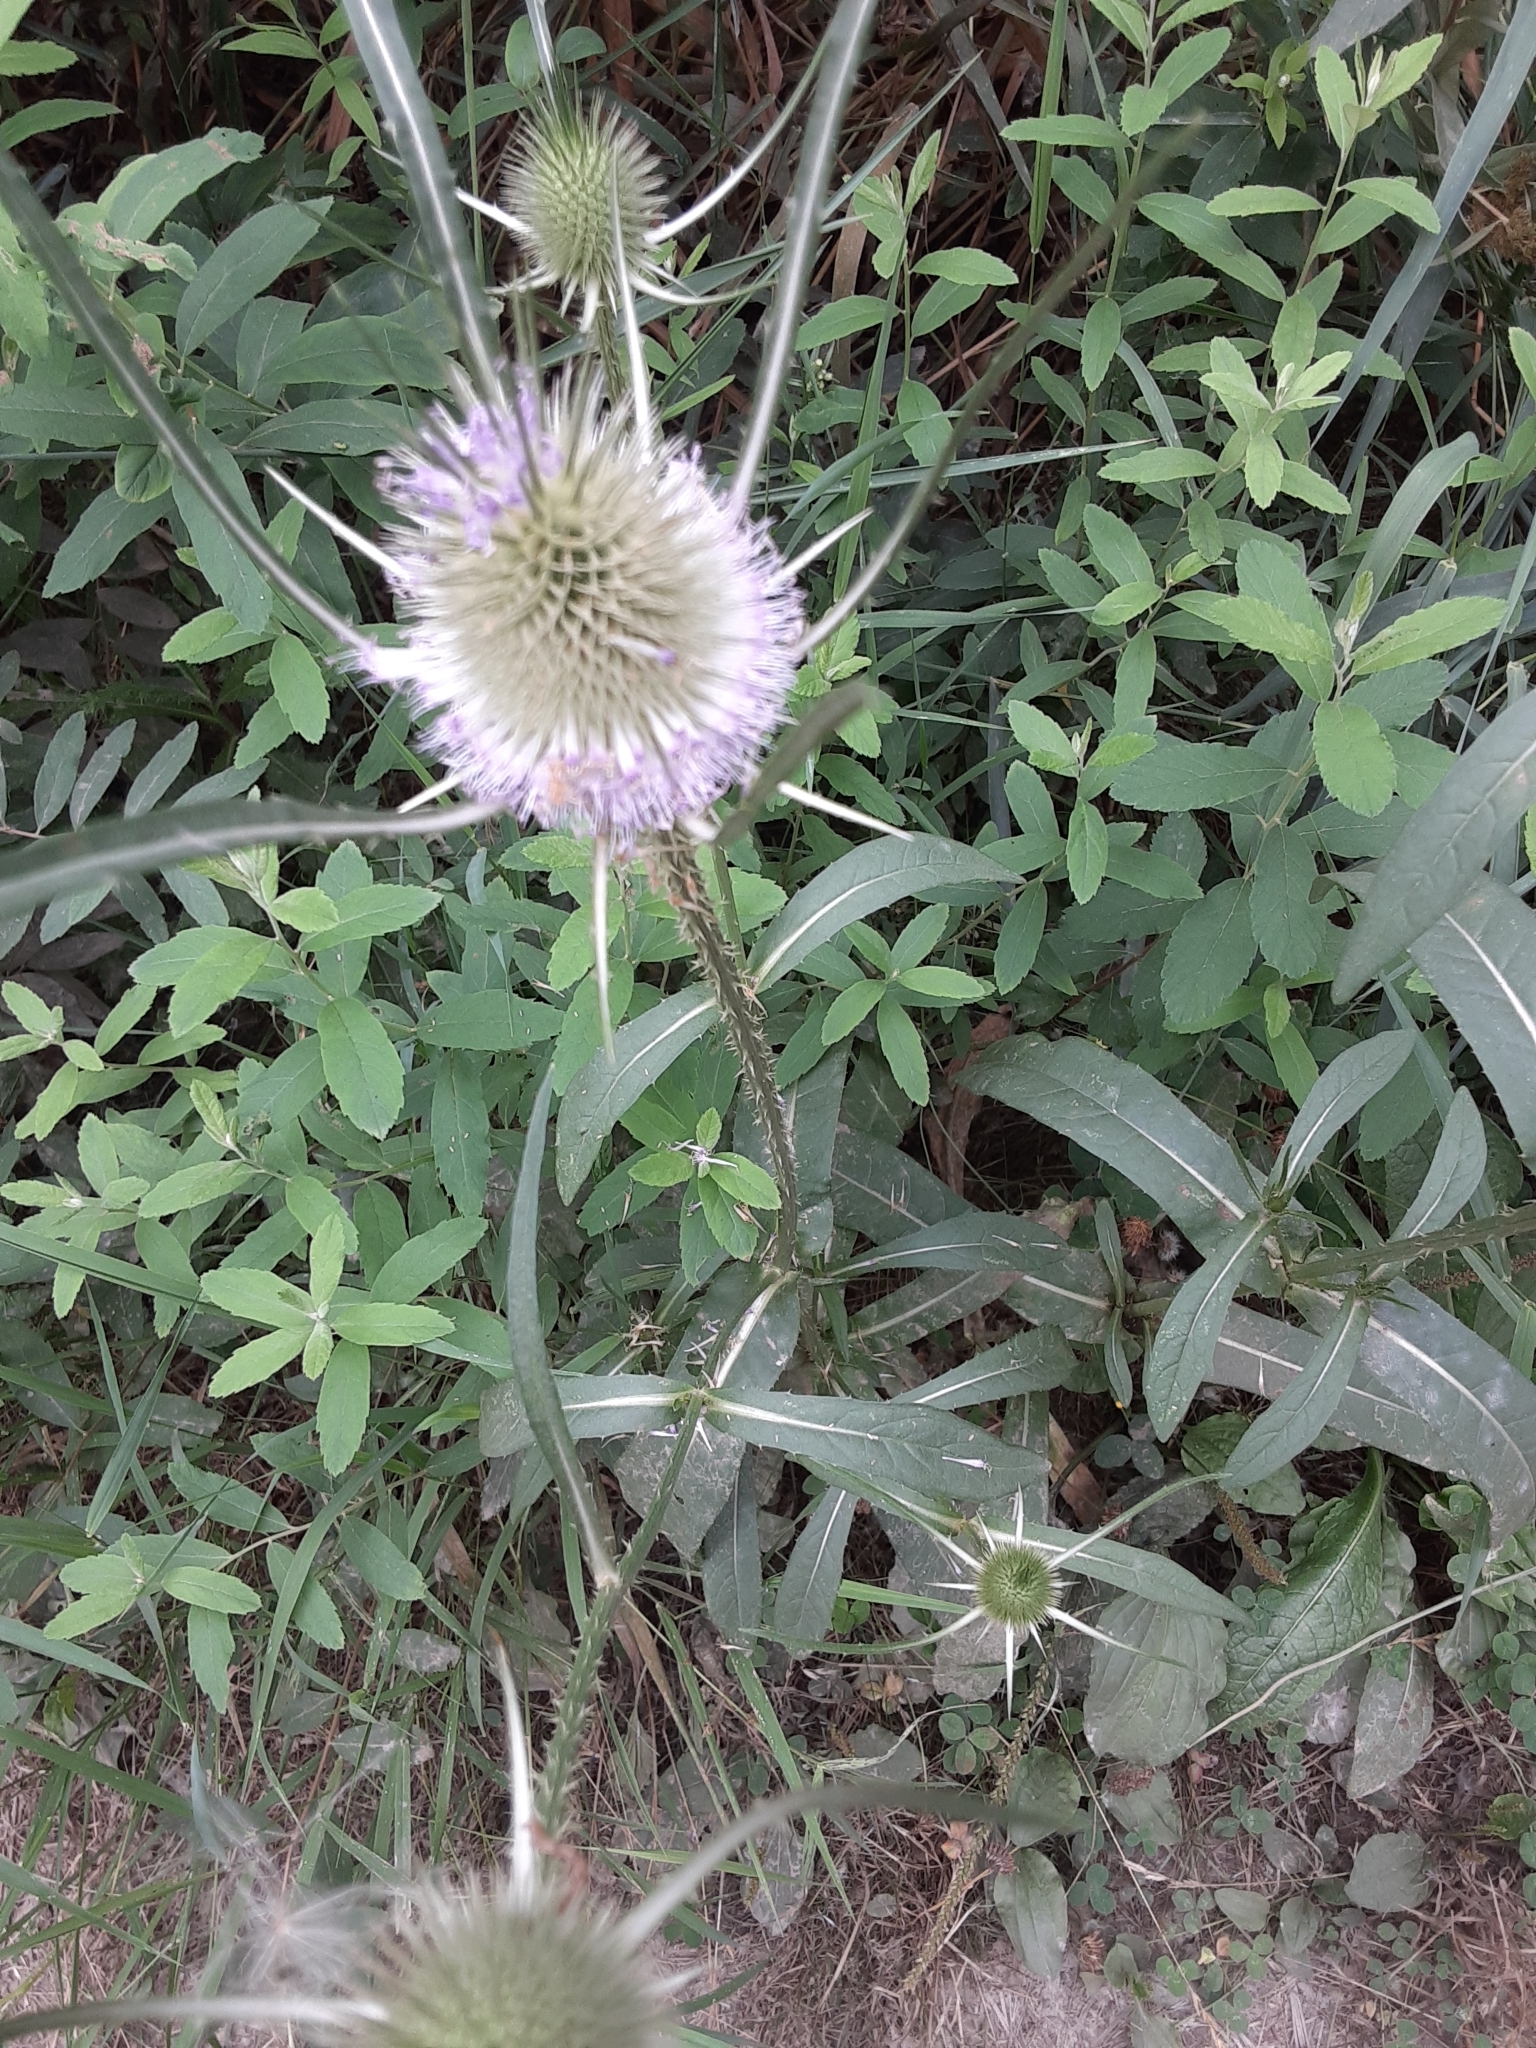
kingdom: Plantae
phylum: Tracheophyta
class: Magnoliopsida
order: Dipsacales
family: Caprifoliaceae
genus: Dipsacus
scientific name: Dipsacus fullonum
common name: Teasel
